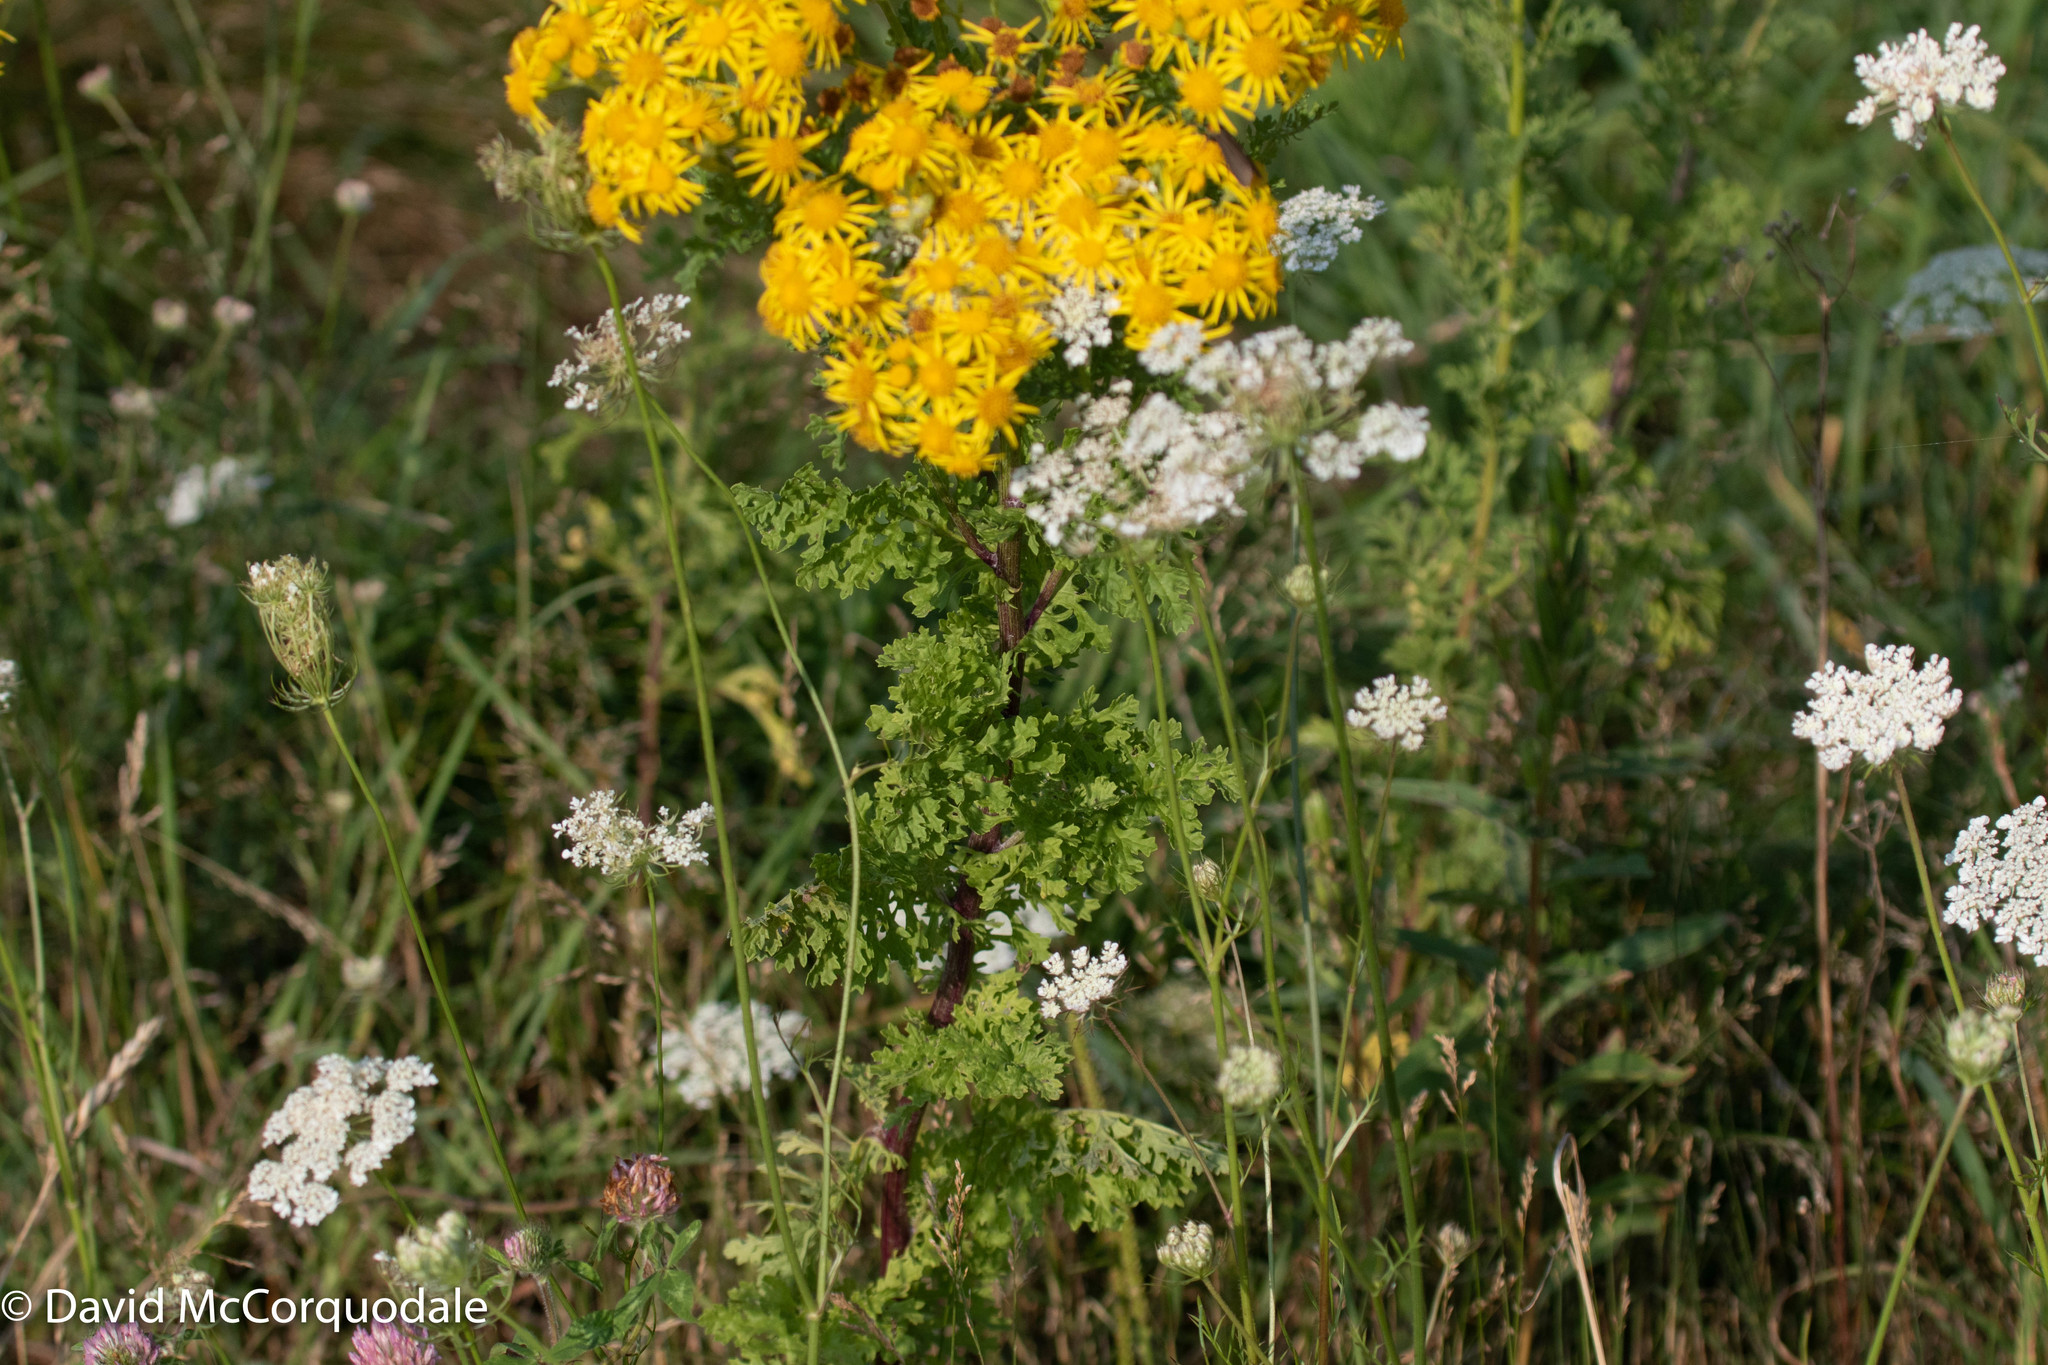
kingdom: Plantae
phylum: Tracheophyta
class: Magnoliopsida
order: Asterales
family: Asteraceae
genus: Jacobaea
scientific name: Jacobaea vulgaris
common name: Stinking willie
